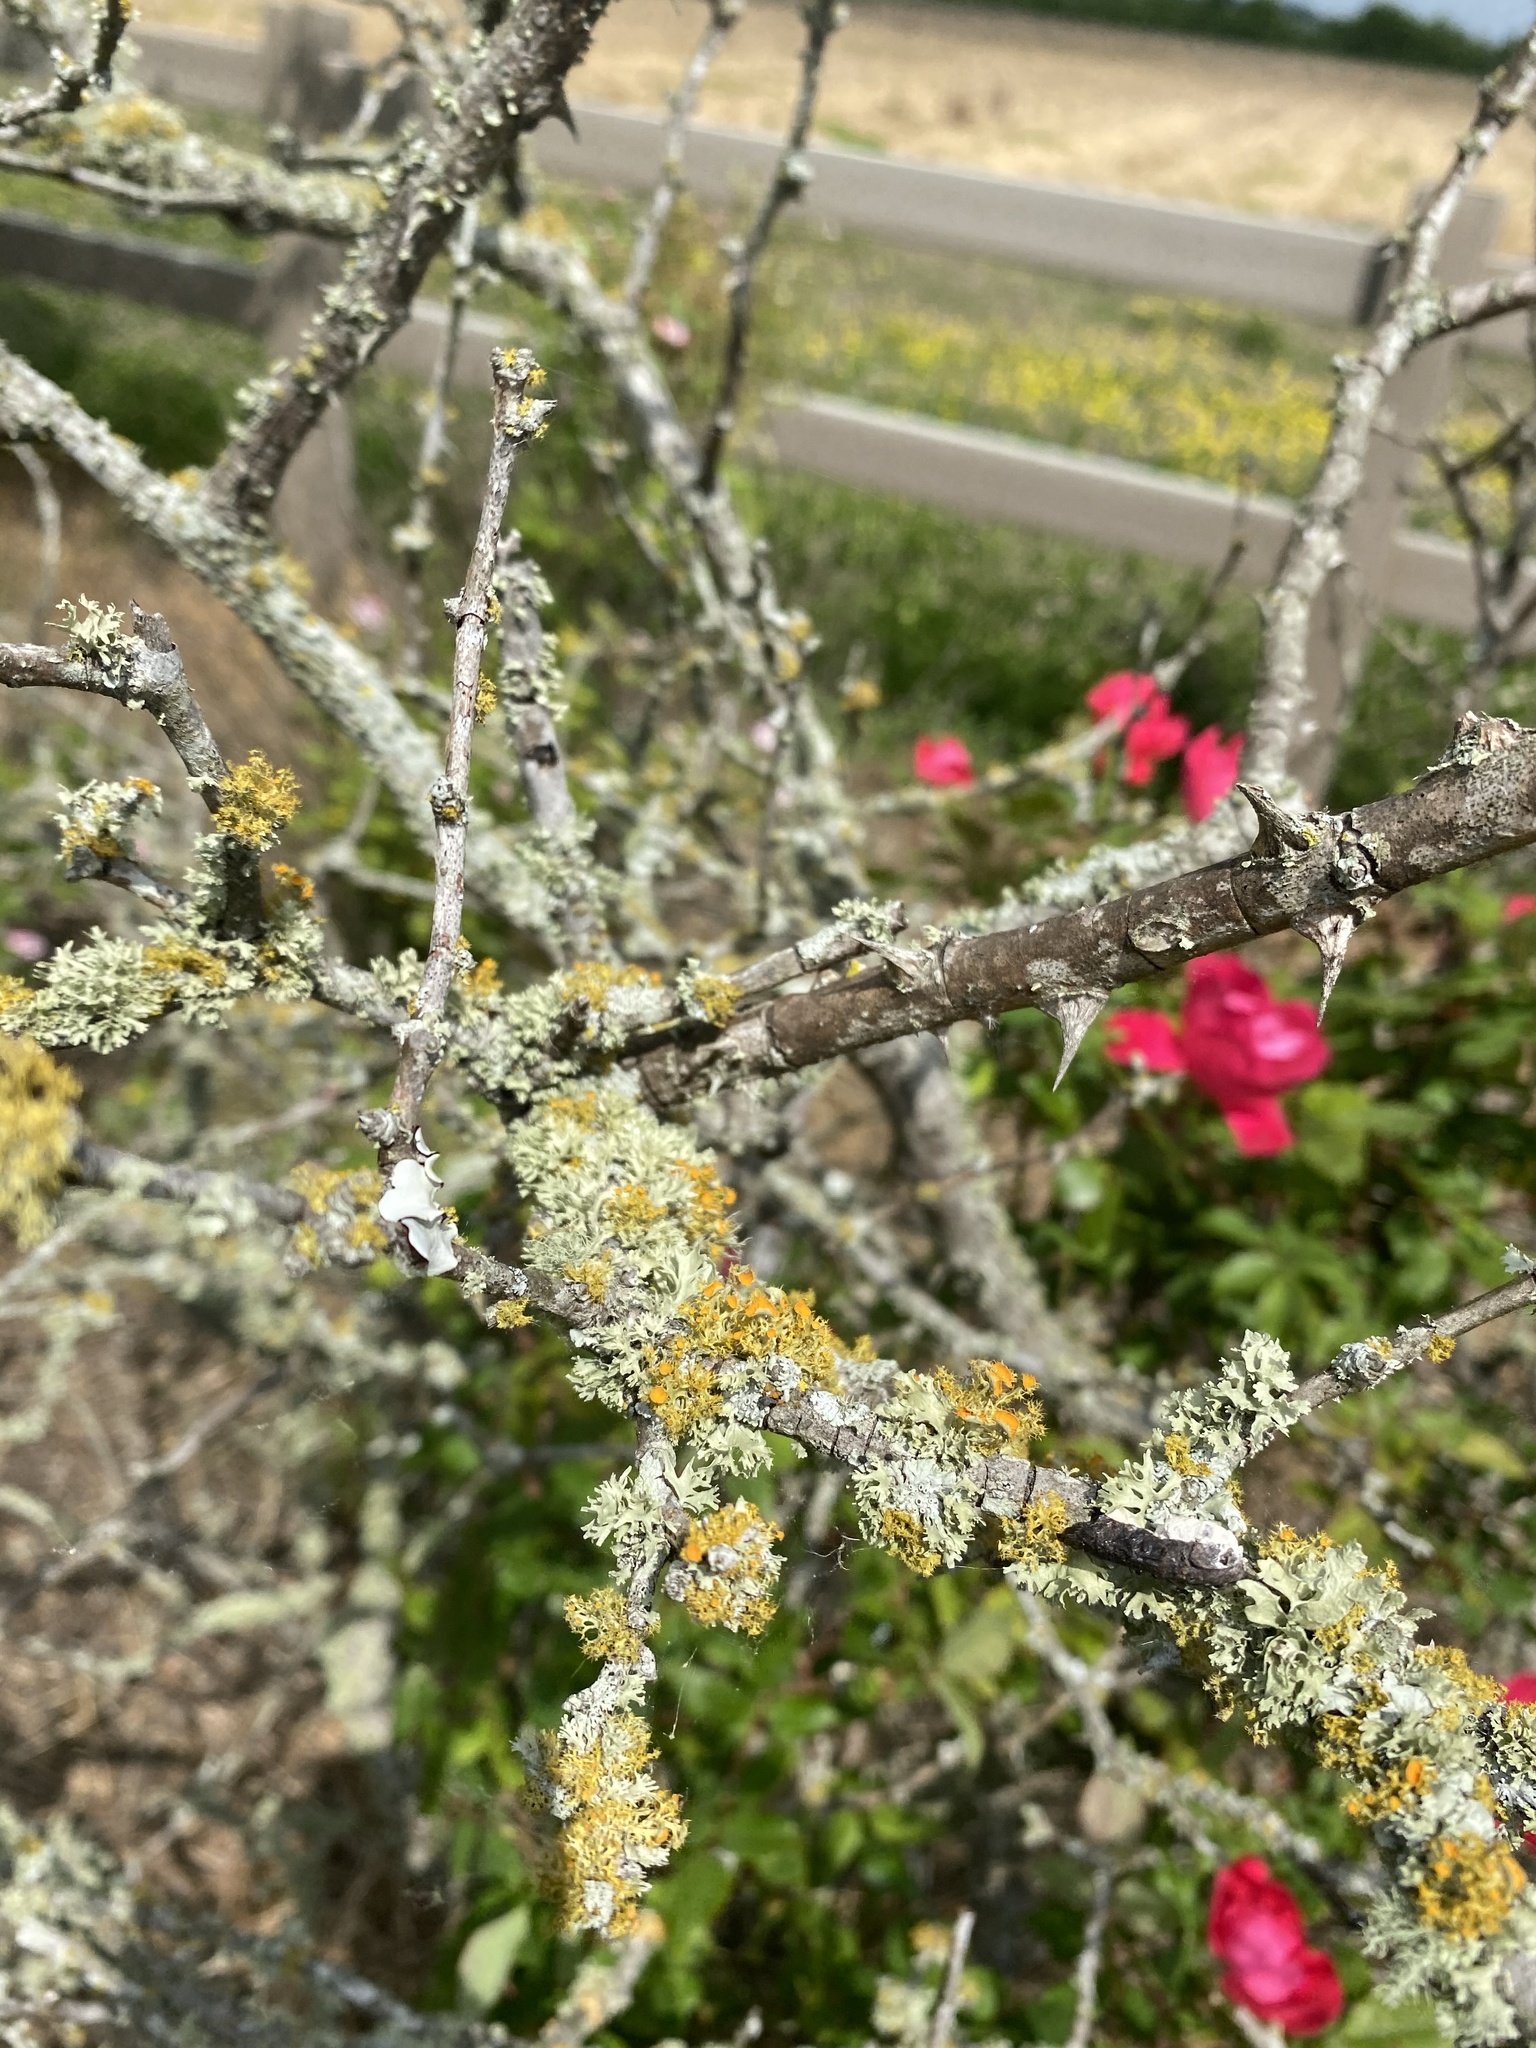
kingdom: Fungi
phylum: Ascomycota
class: Lecanoromycetes
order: Teloschistales
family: Teloschistaceae
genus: Niorma
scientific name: Niorma chrysophthalma
